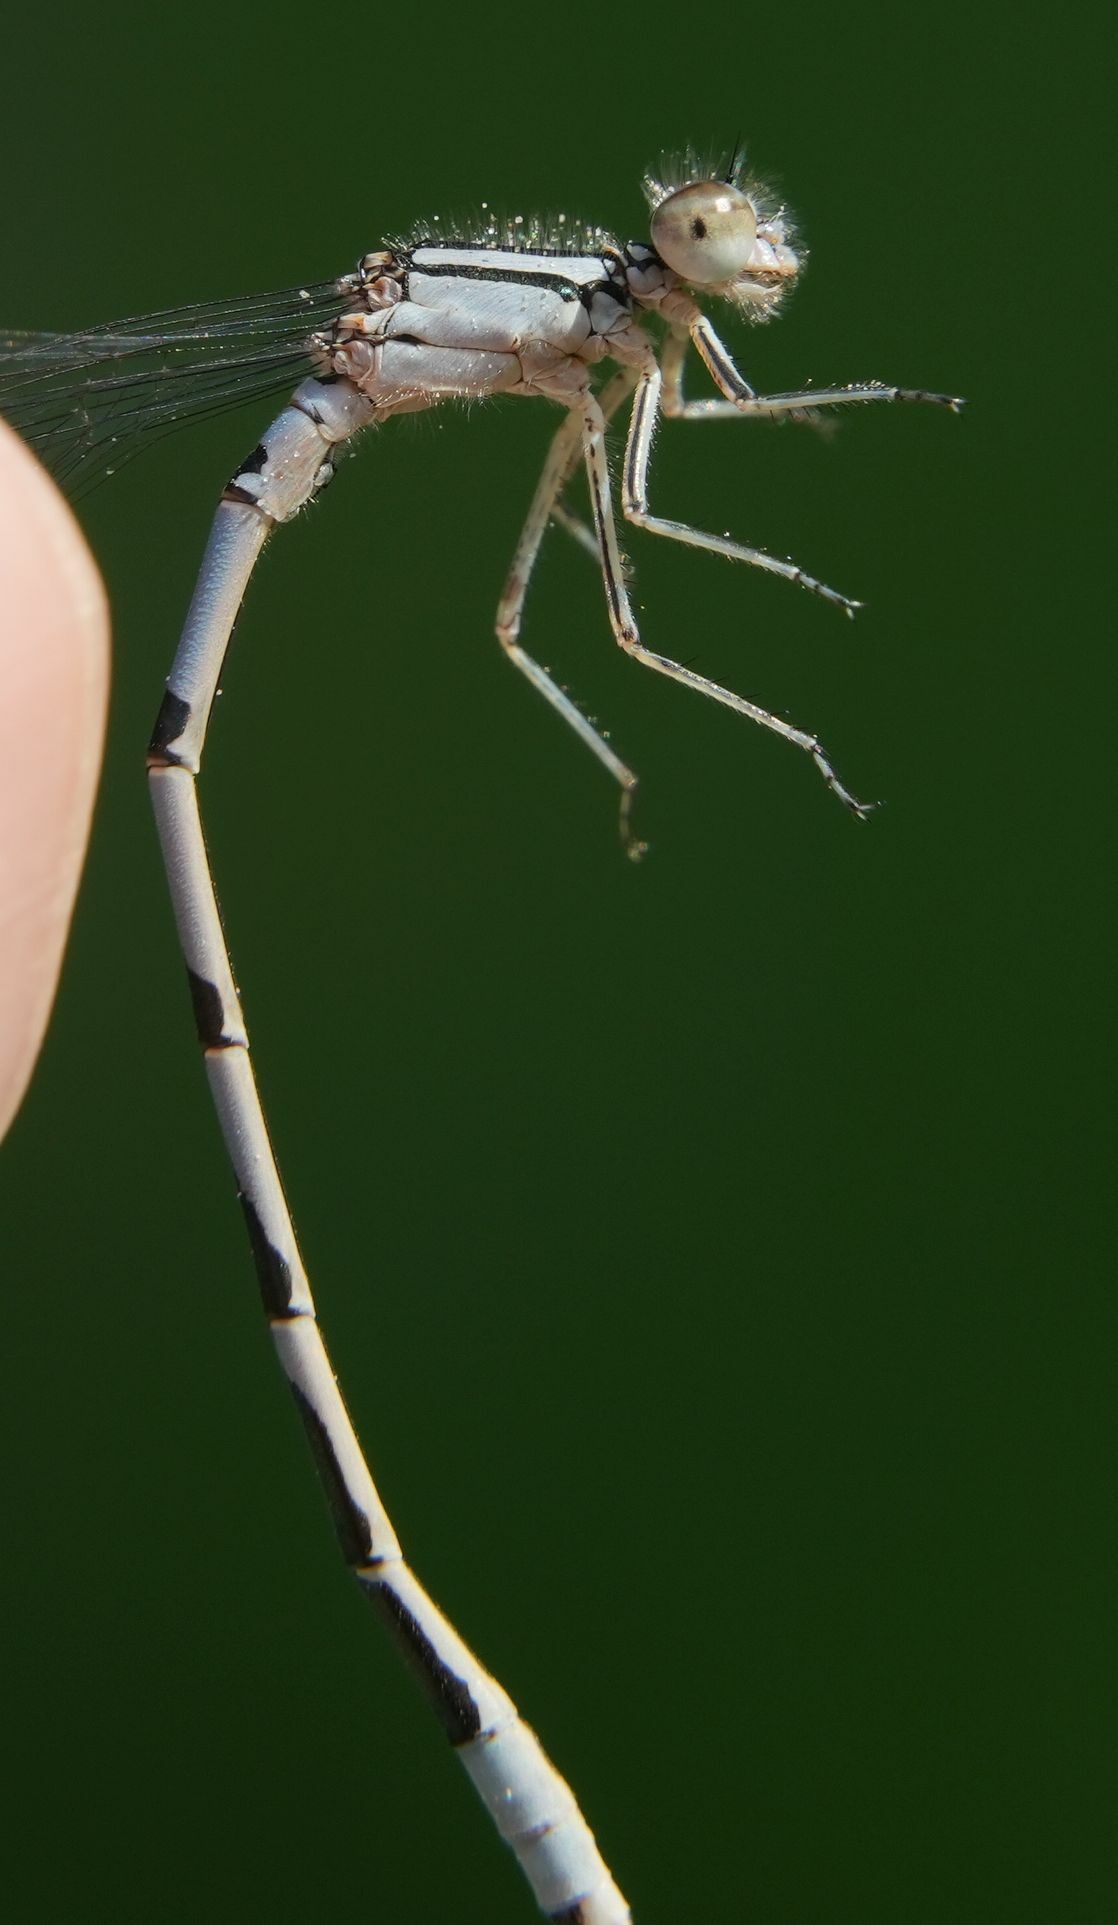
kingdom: Animalia
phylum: Arthropoda
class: Insecta
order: Odonata
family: Coenagrionidae
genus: Enallagma
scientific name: Enallagma ebrium
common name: Marsh bluet
